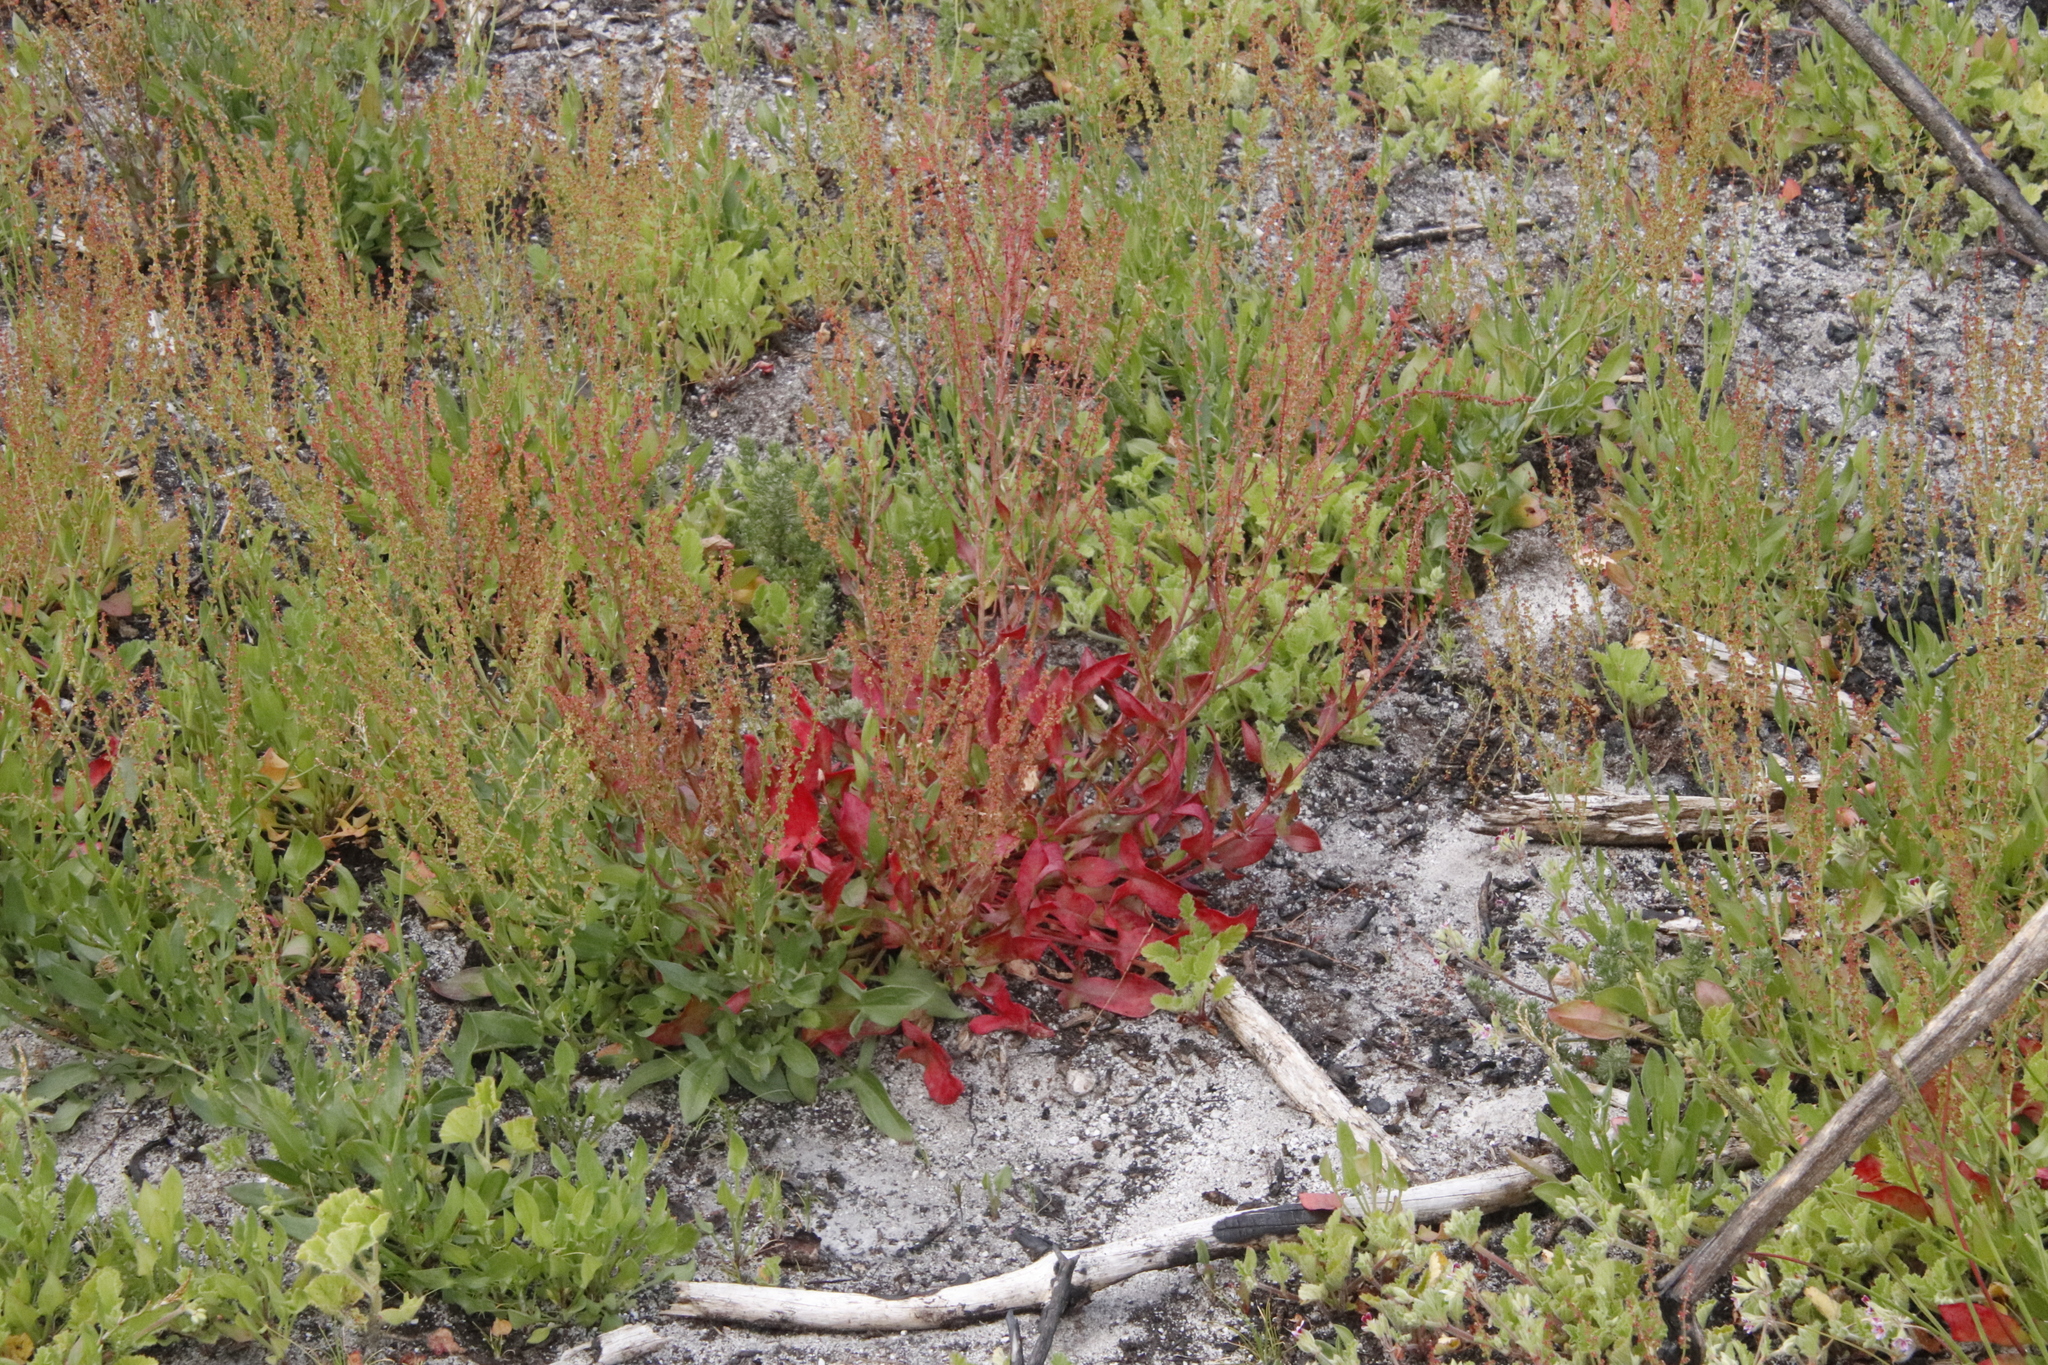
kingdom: Plantae
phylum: Tracheophyta
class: Magnoliopsida
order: Caryophyllales
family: Polygonaceae
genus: Rumex
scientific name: Rumex acetosella
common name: Common sheep sorrel
